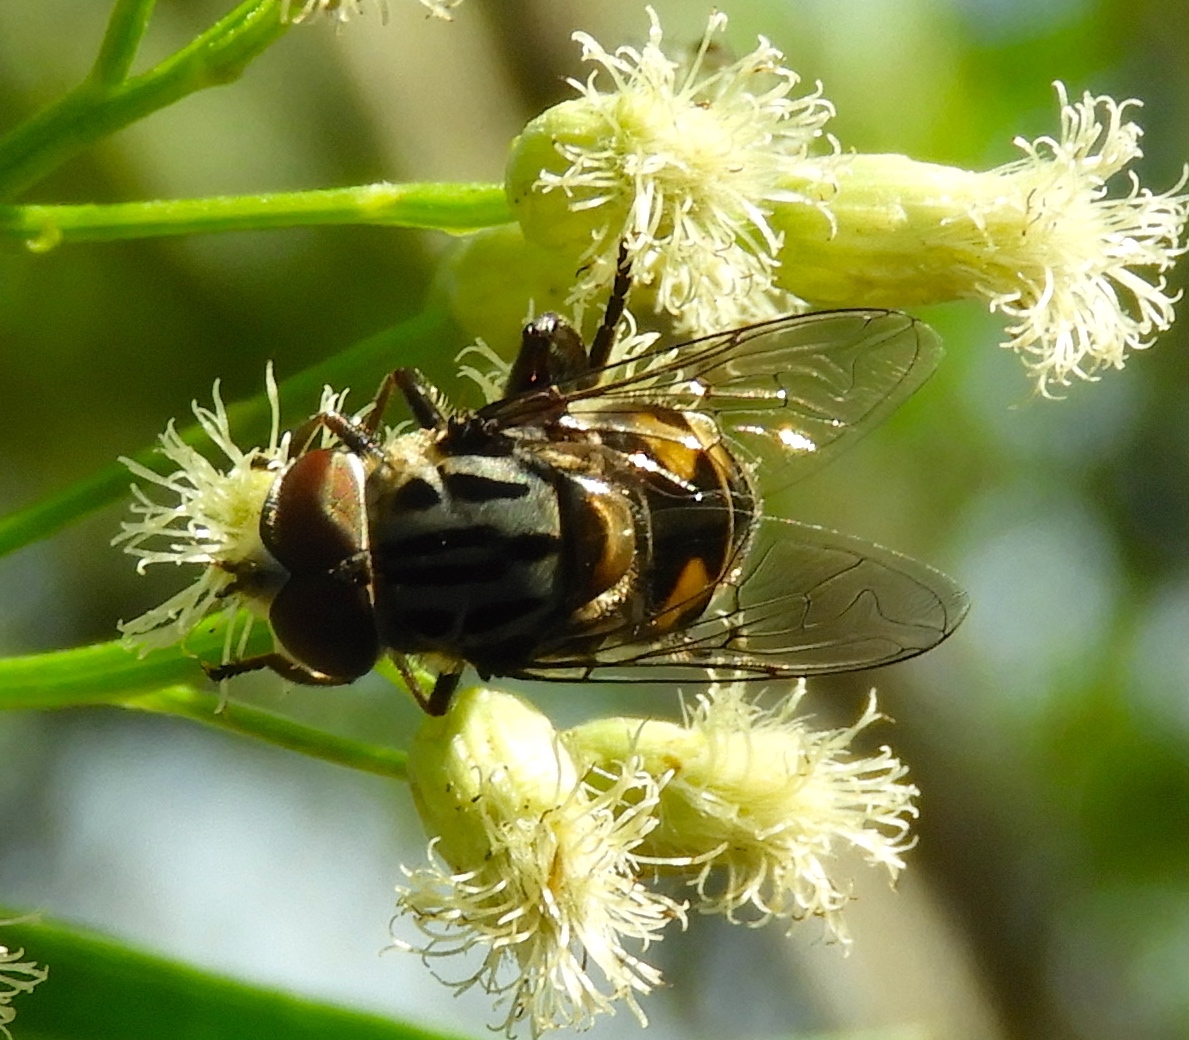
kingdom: Animalia
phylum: Arthropoda
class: Insecta
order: Diptera
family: Syrphidae
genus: Palpada
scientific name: Palpada furcata
